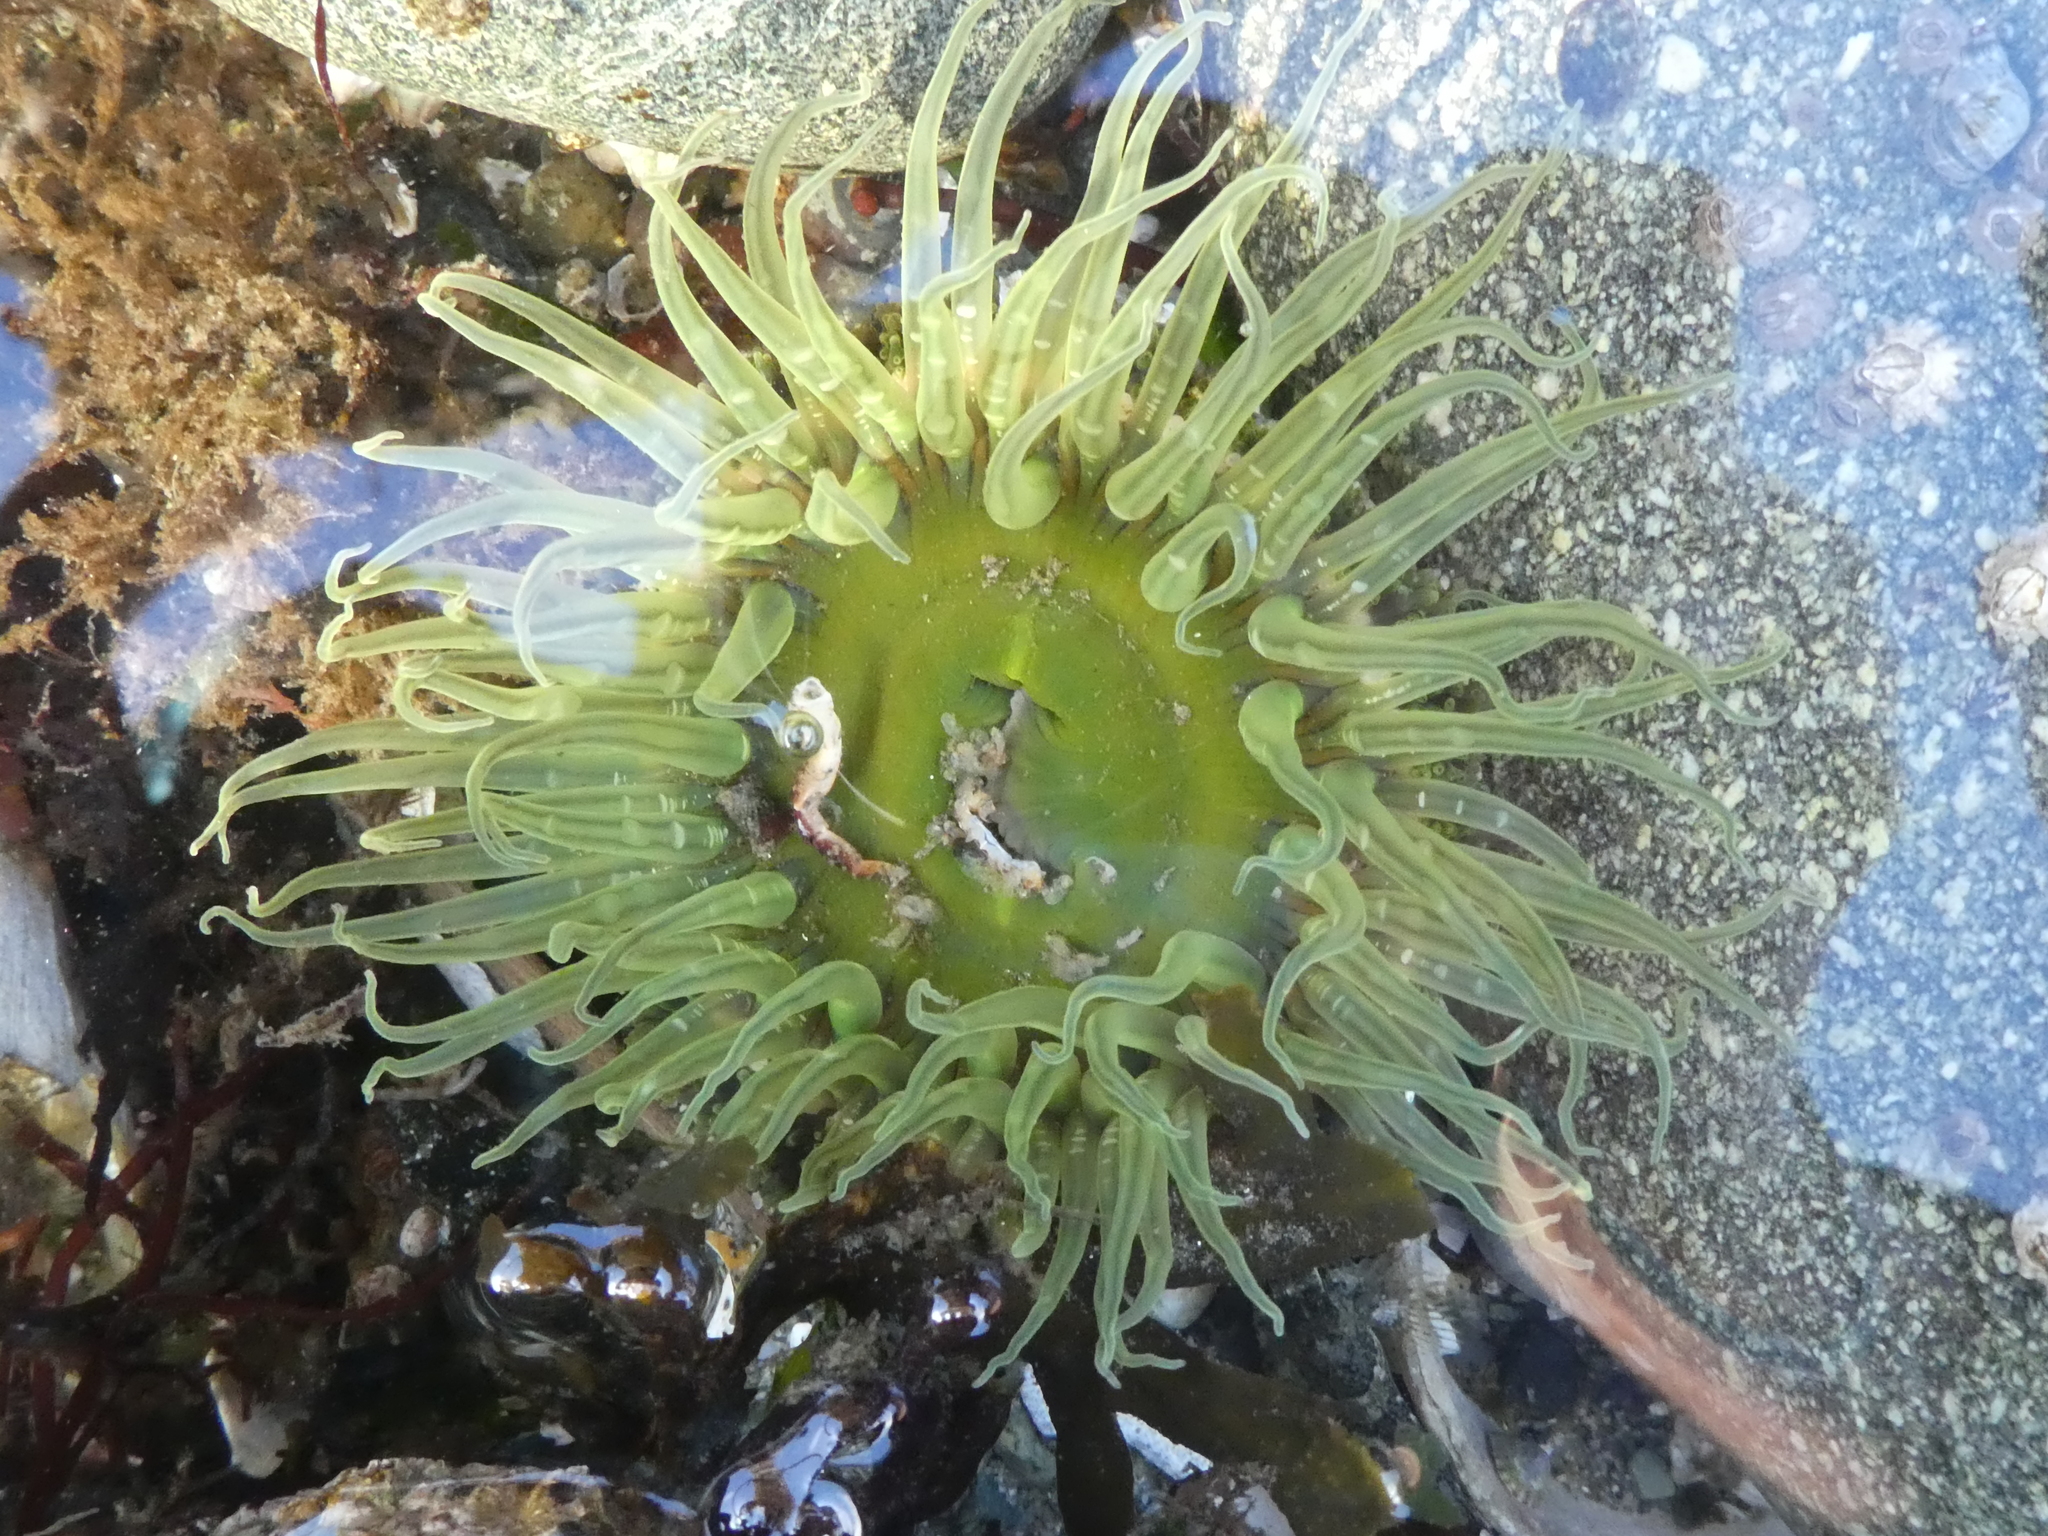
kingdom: Animalia
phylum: Cnidaria
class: Anthozoa
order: Actiniaria
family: Actiniidae
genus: Anthopleura
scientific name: Anthopleura artemisia
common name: Buried sea anemone
